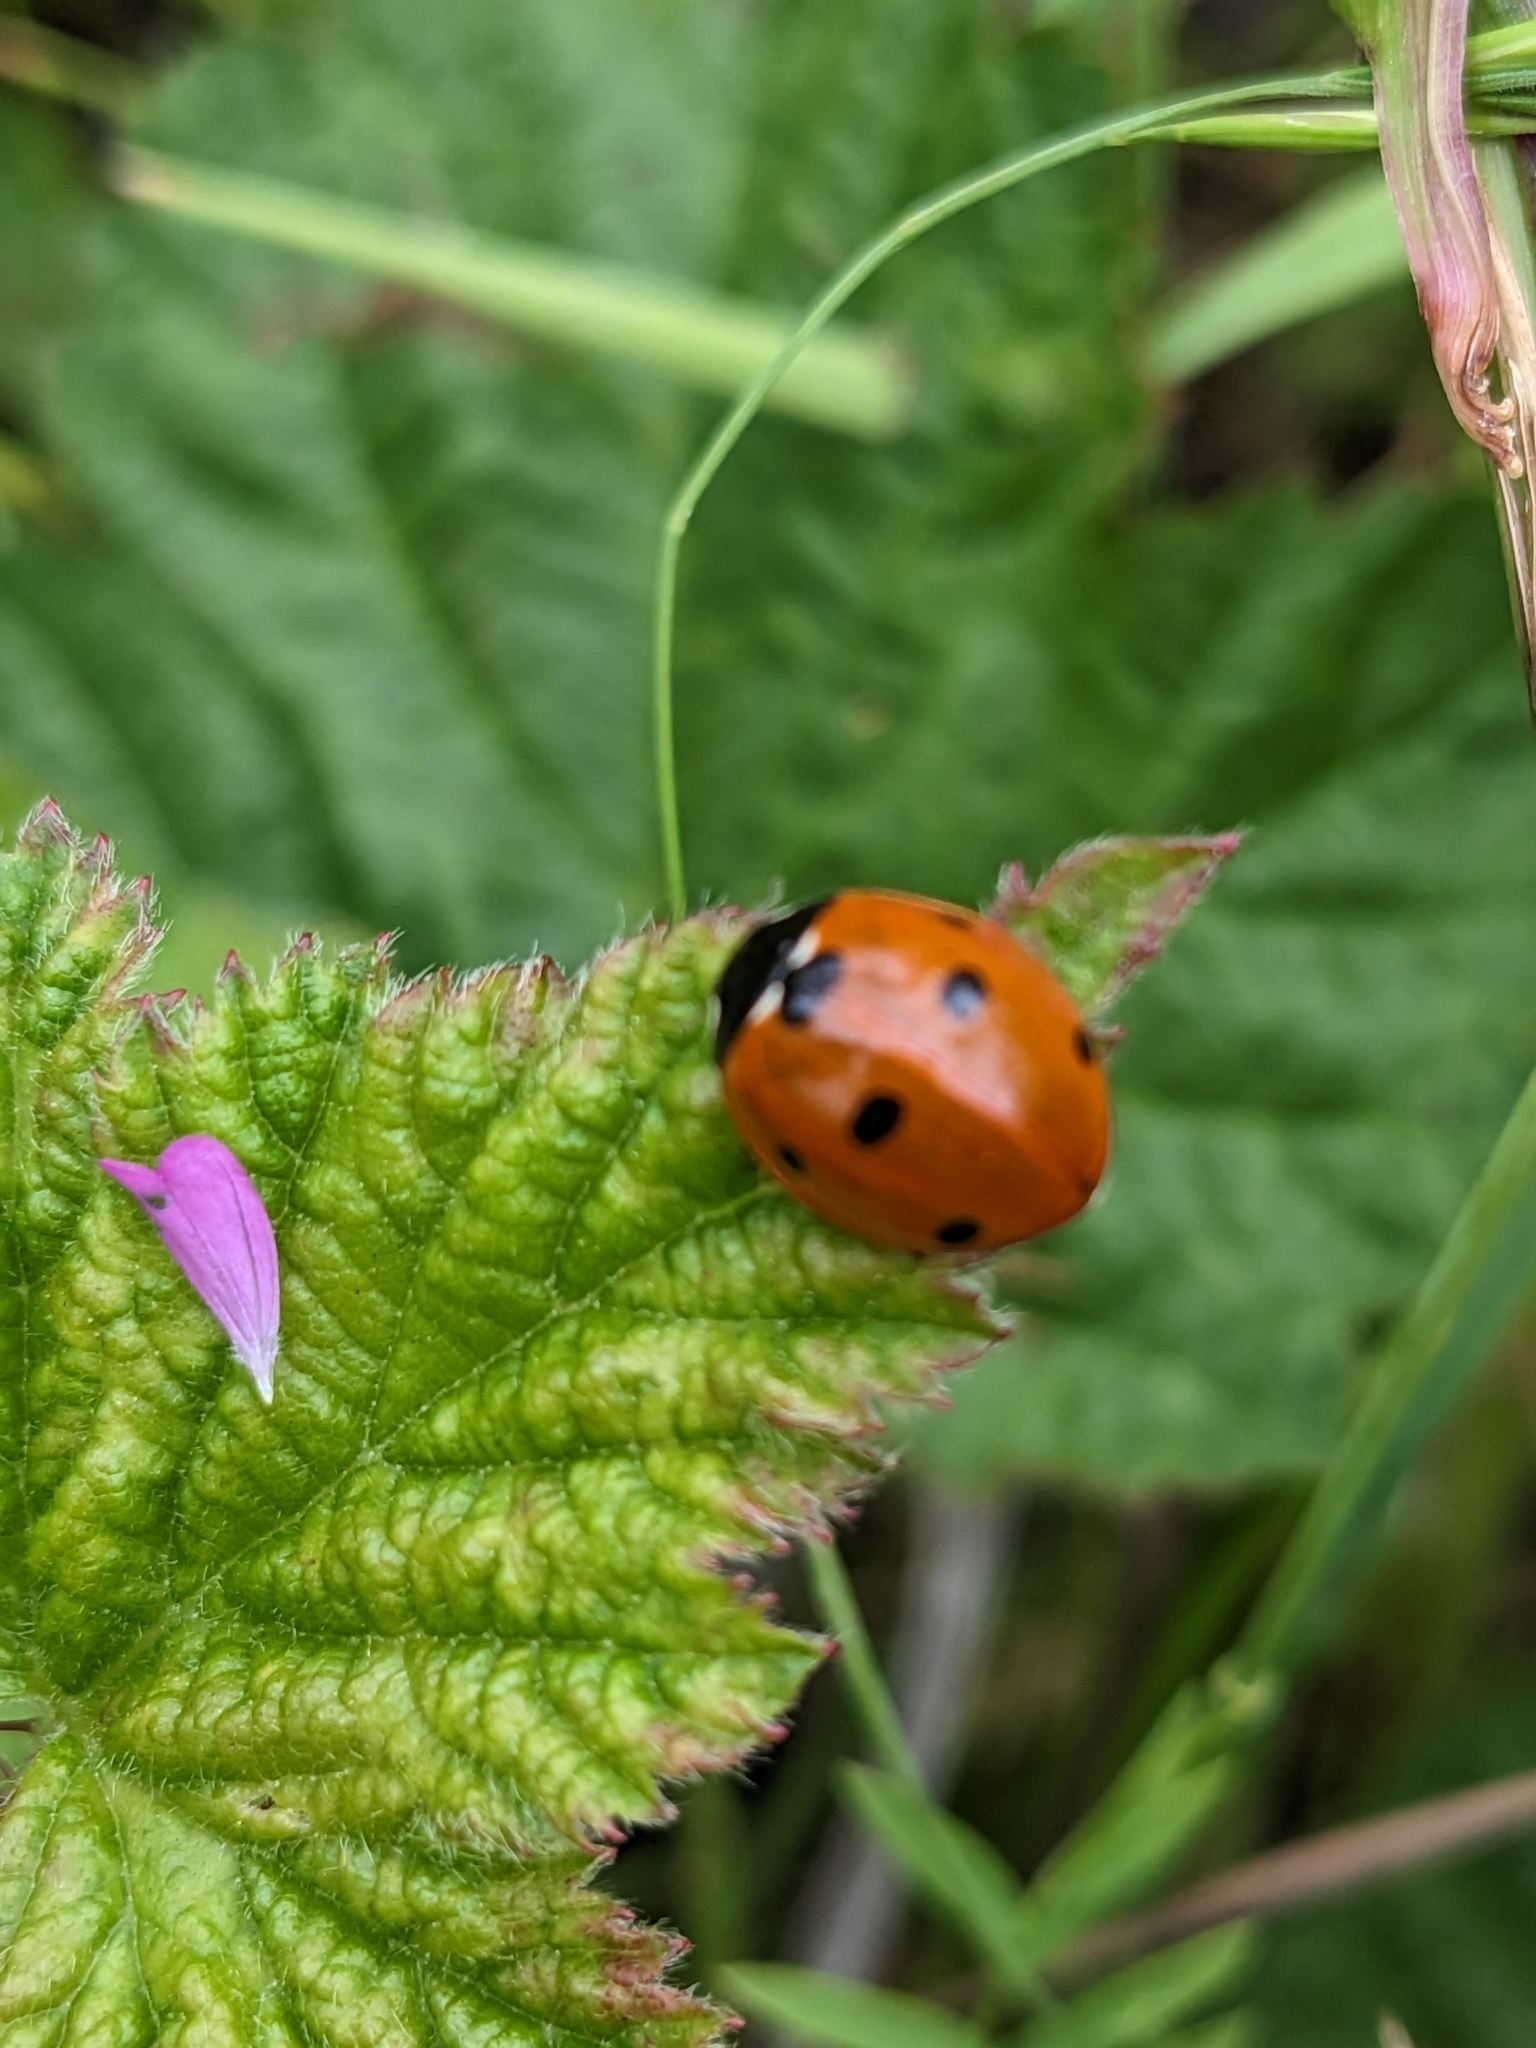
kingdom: Animalia
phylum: Arthropoda
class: Insecta
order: Coleoptera
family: Coccinellidae
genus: Coccinella
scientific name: Coccinella septempunctata
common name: Sevenspotted lady beetle
